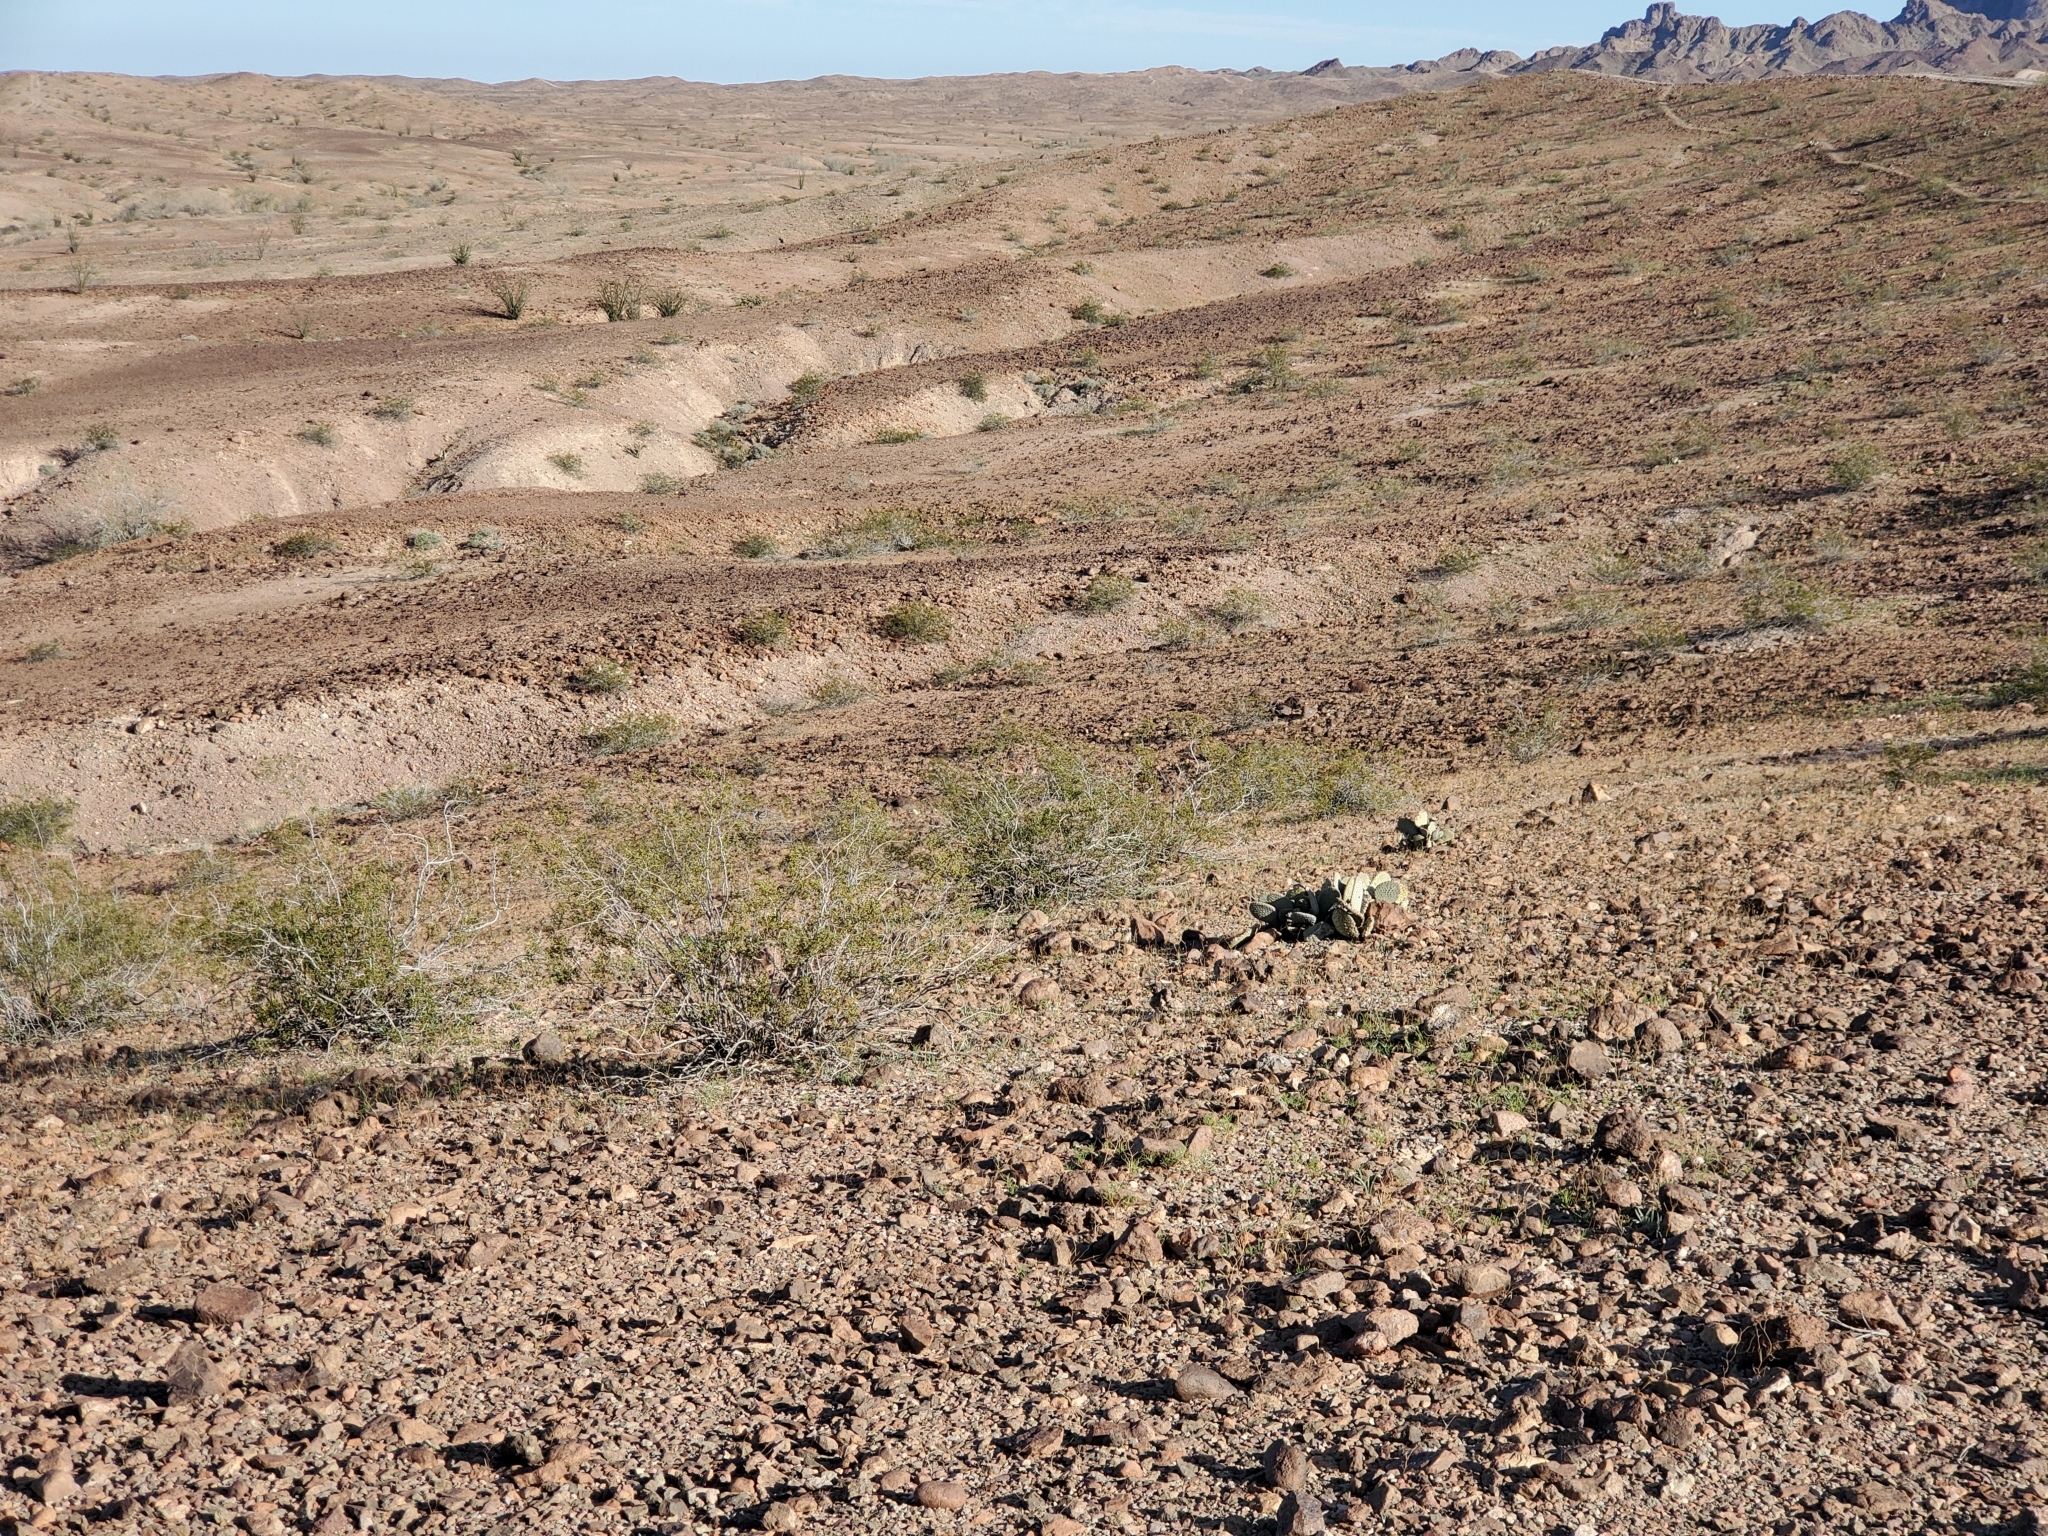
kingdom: Plantae
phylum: Tracheophyta
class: Magnoliopsida
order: Zygophyllales
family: Zygophyllaceae
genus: Larrea
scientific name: Larrea tridentata
